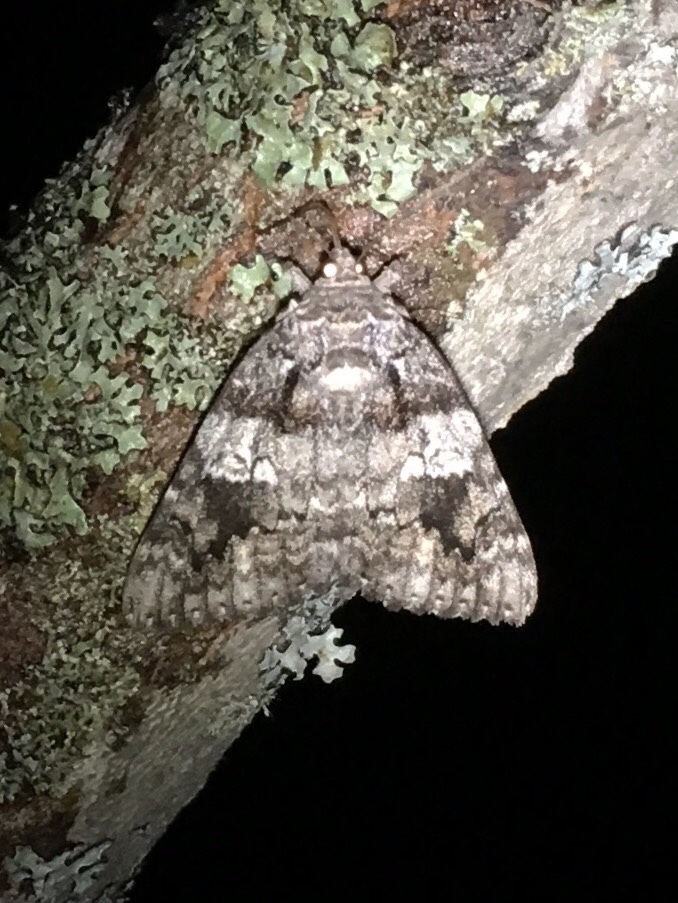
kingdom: Animalia
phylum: Arthropoda
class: Insecta
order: Lepidoptera
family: Erebidae
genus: Catocala
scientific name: Catocala ilia
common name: Ilia underwing
